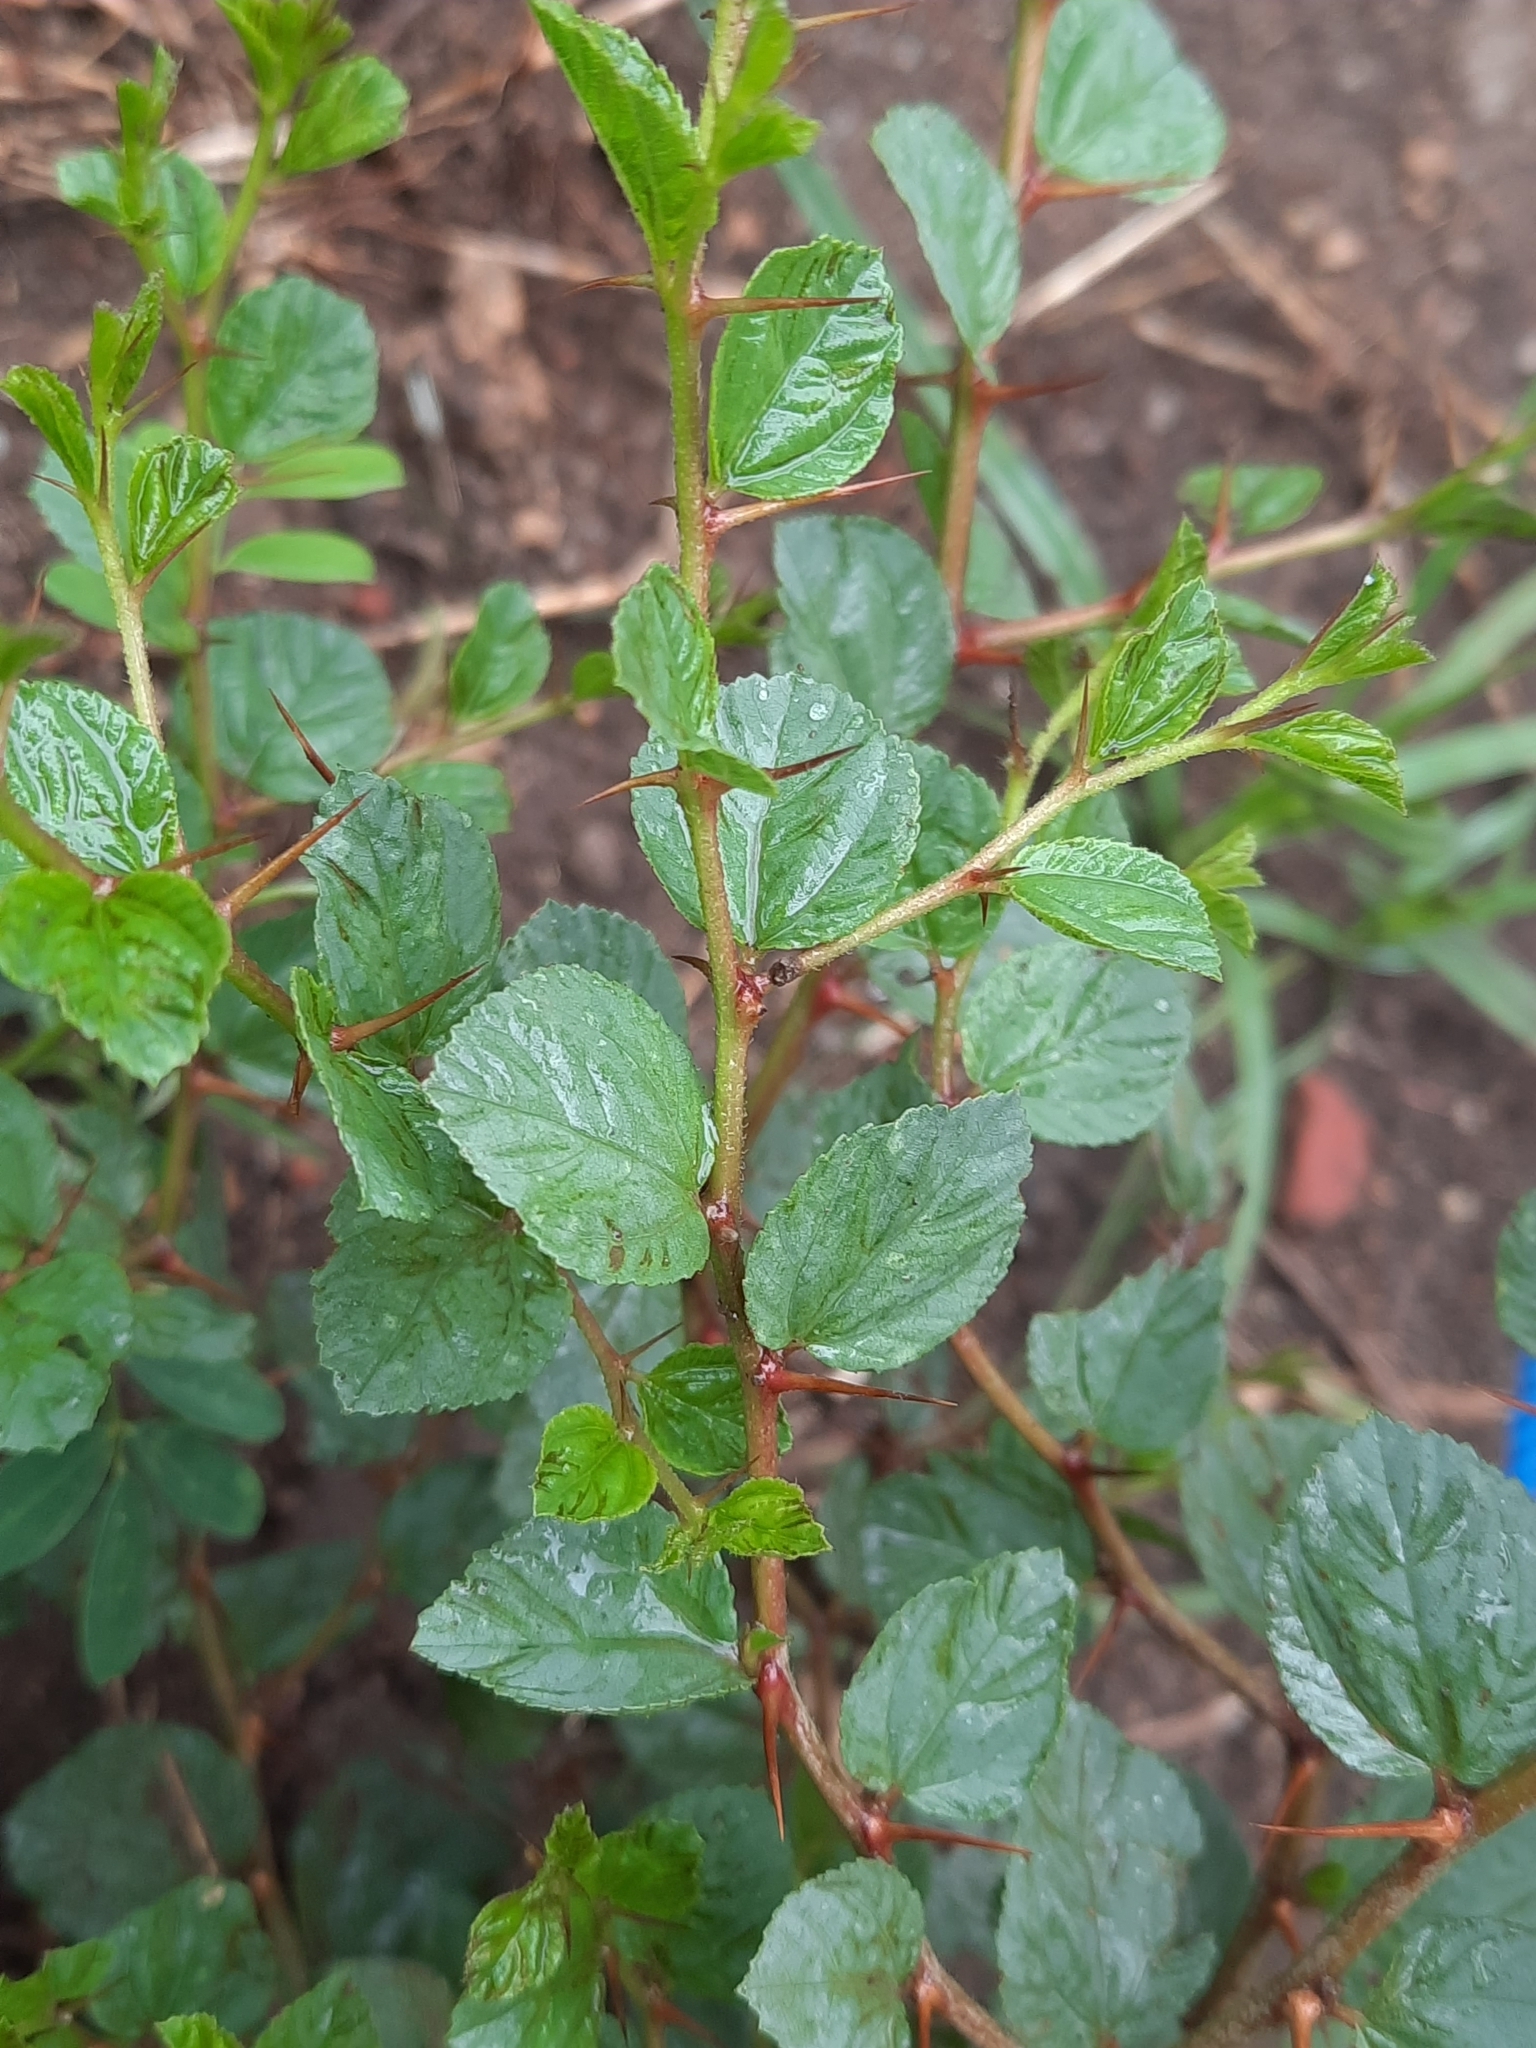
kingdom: Plantae
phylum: Tracheophyta
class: Magnoliopsida
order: Rosales
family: Rhamnaceae
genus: Ziziphus
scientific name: Ziziphus nummularia
